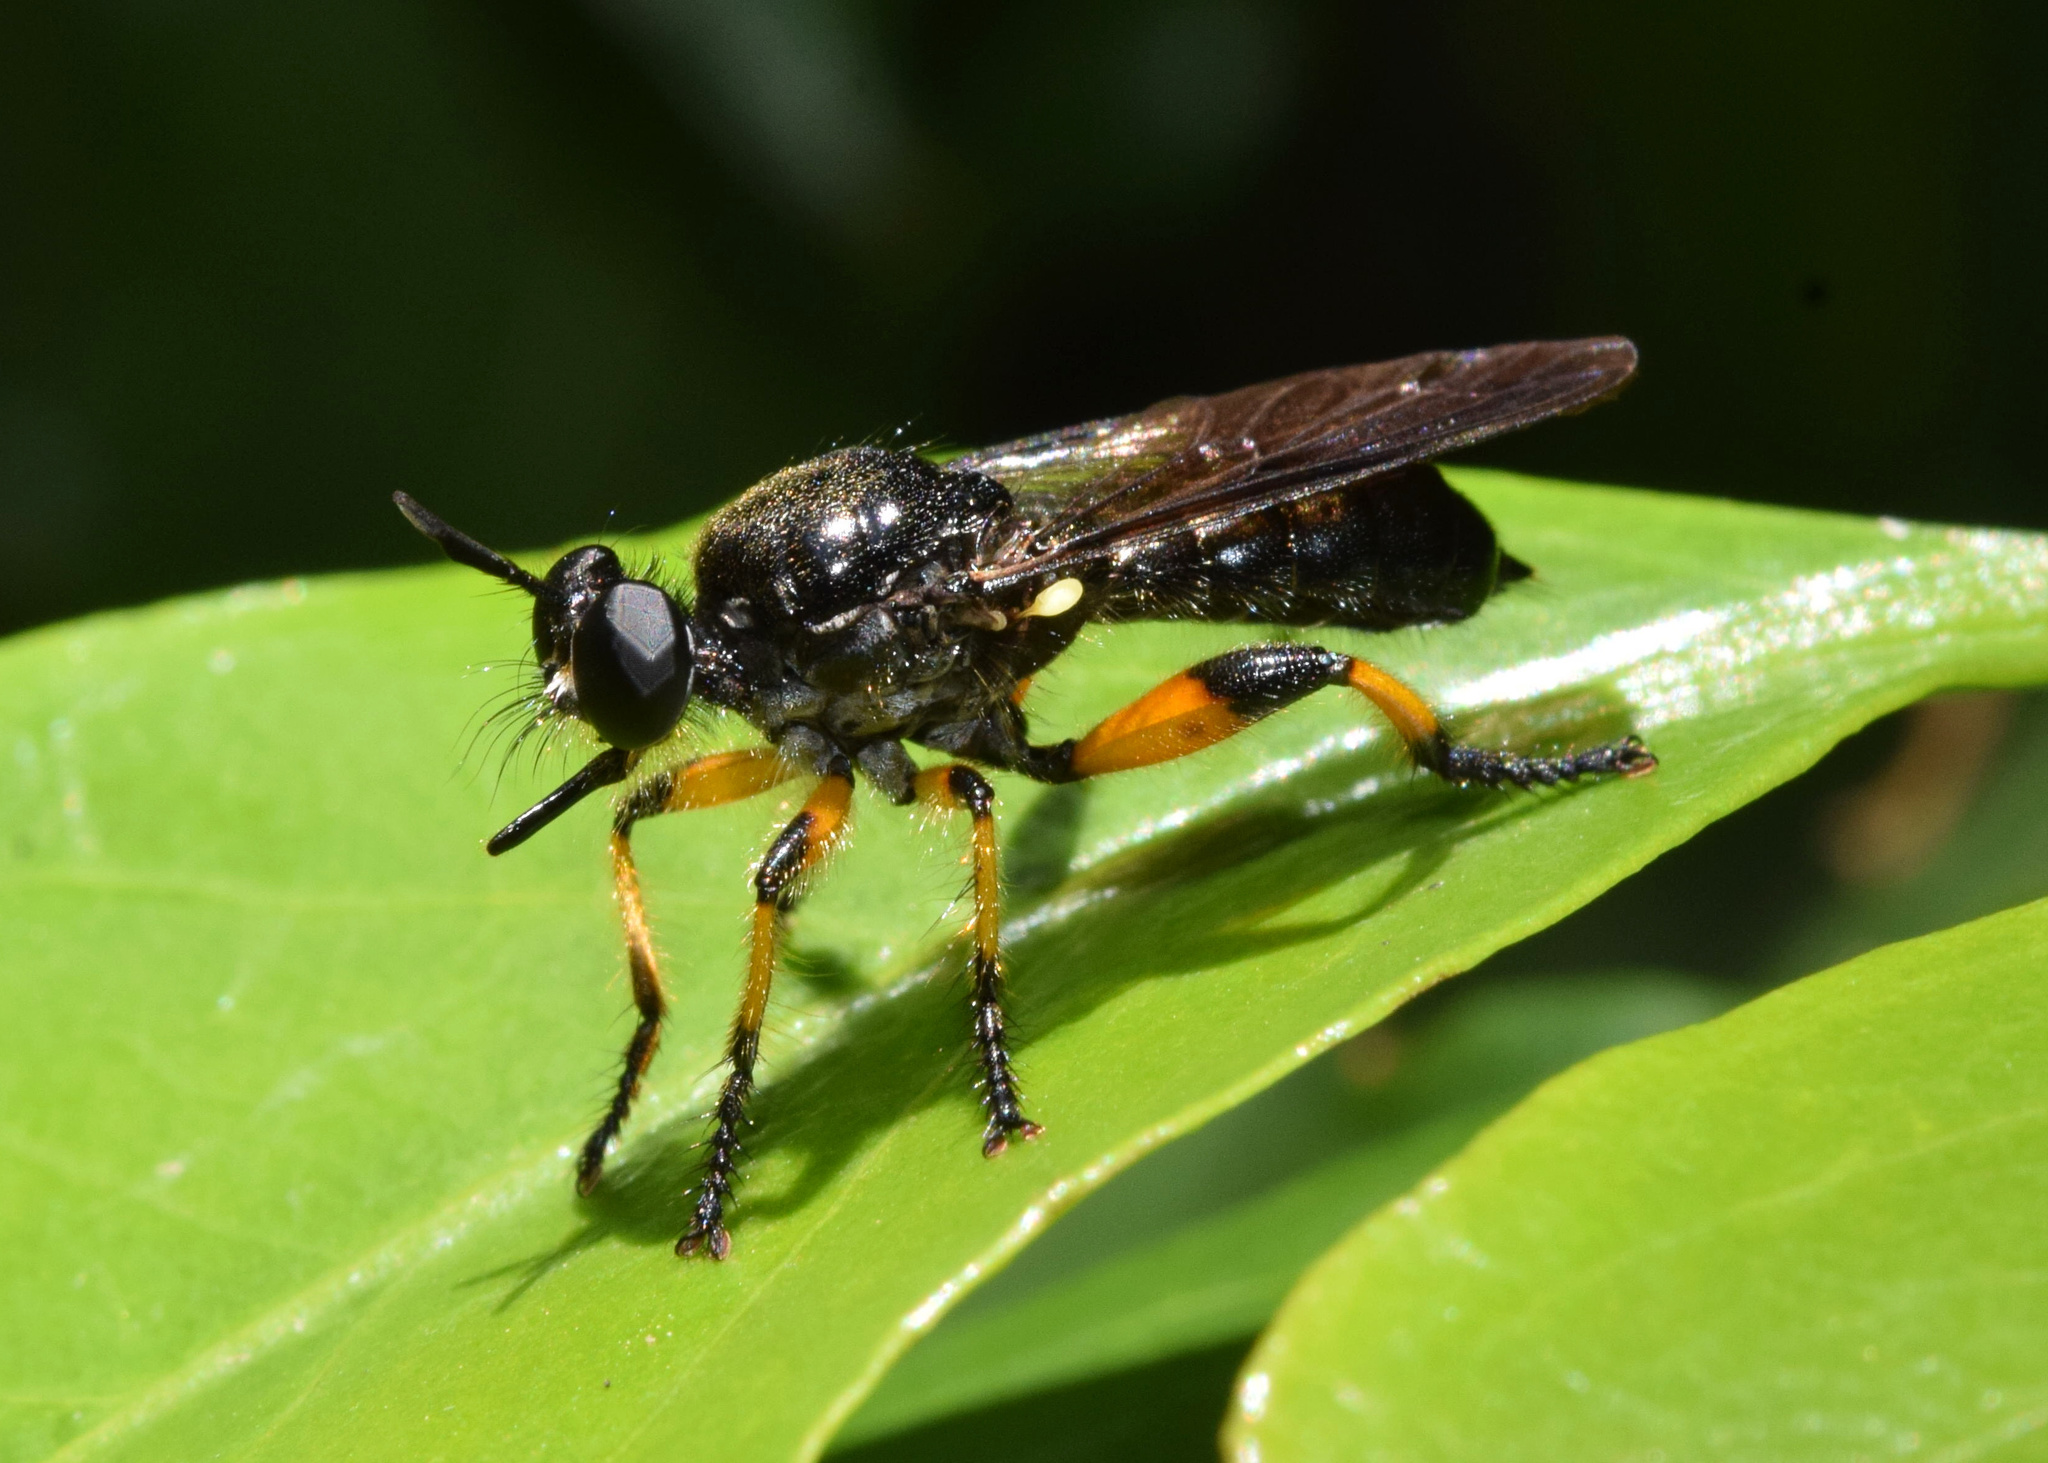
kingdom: Animalia
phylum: Arthropoda
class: Insecta
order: Diptera
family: Asilidae
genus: Laphria
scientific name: Laphria flavipes
